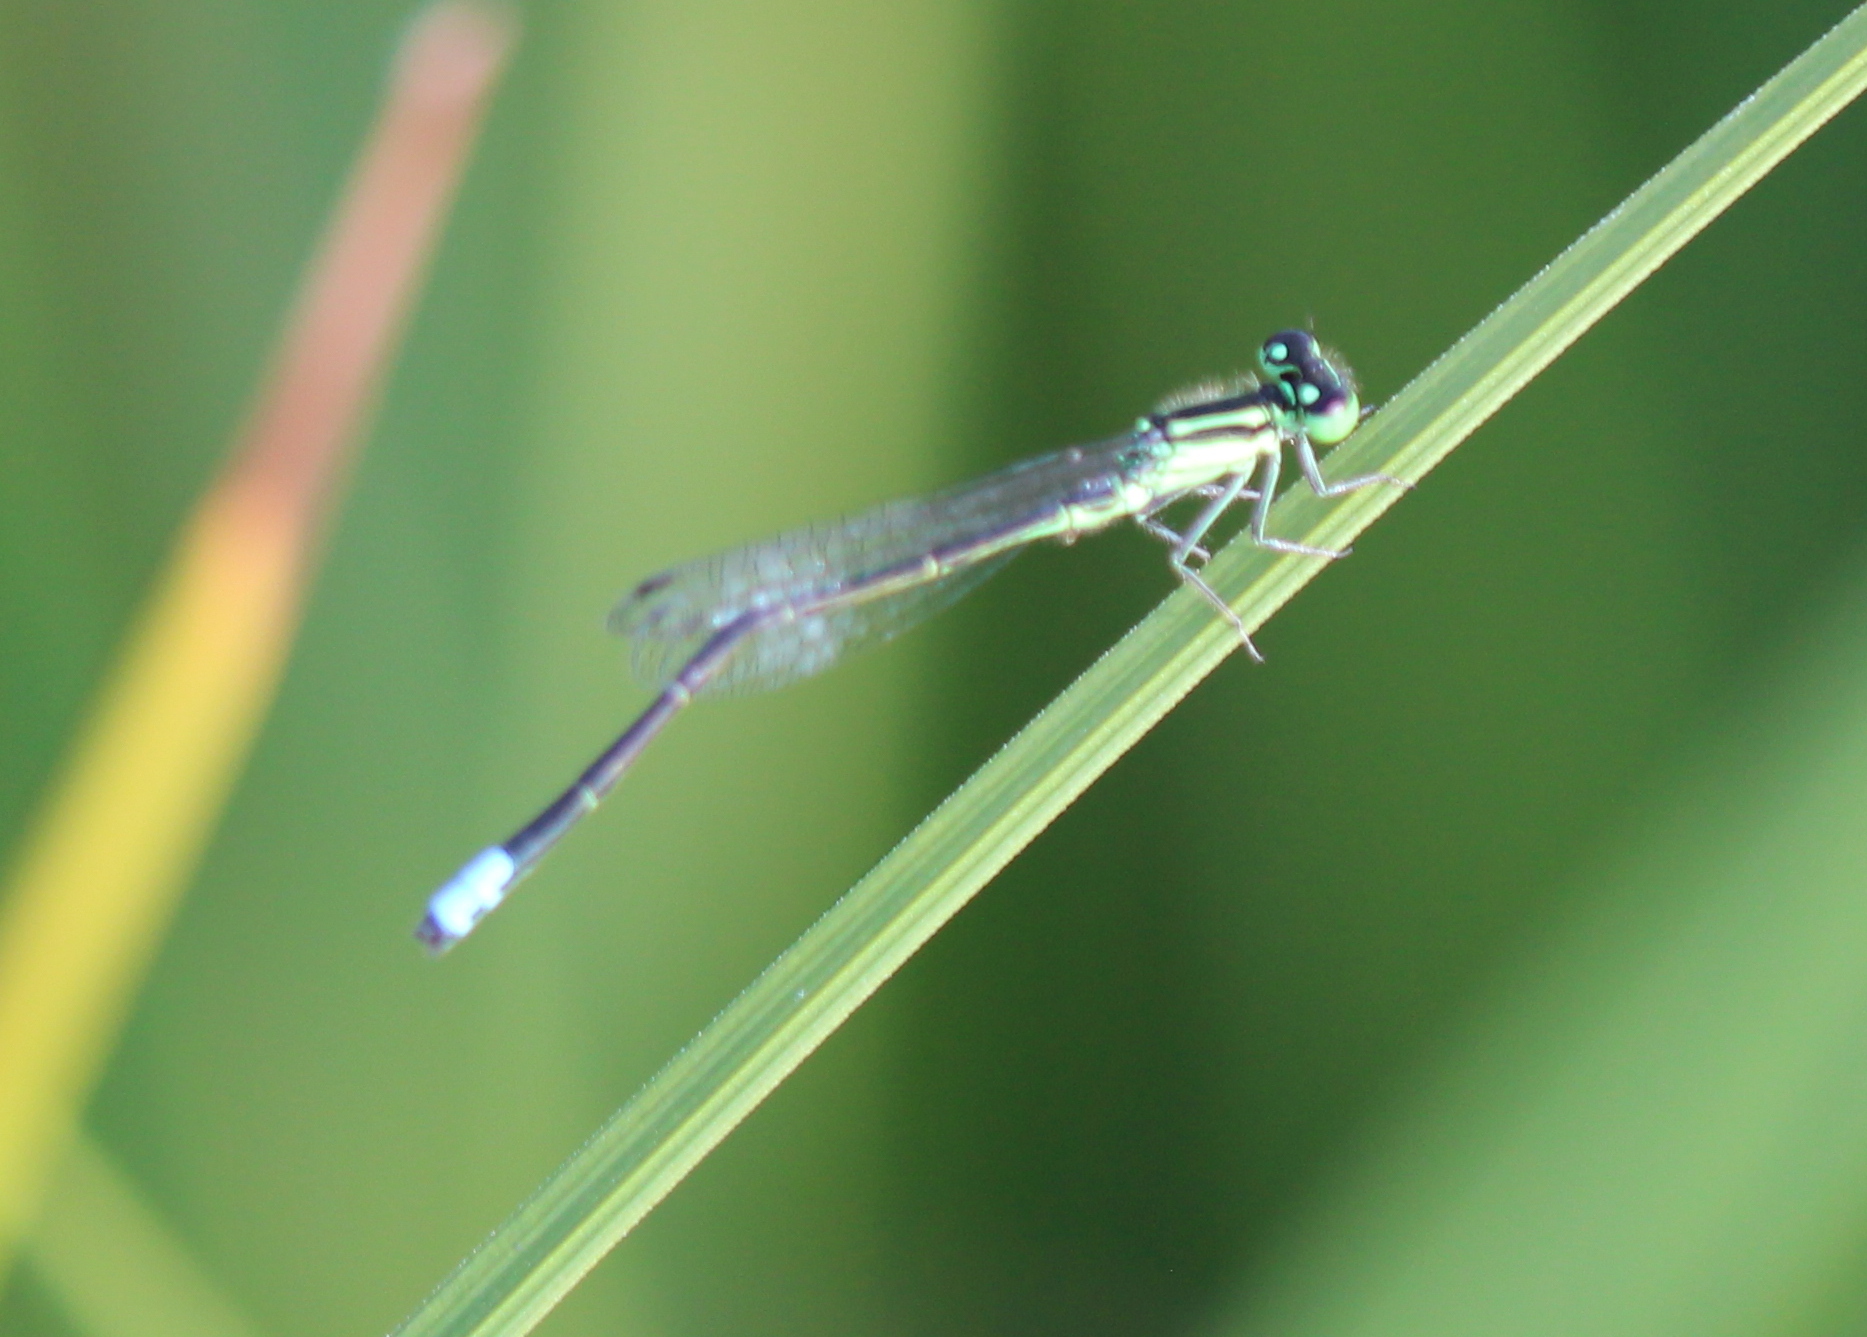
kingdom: Animalia
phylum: Arthropoda
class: Insecta
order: Odonata
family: Coenagrionidae
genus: Ischnura
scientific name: Ischnura verticalis
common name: Eastern forktail
